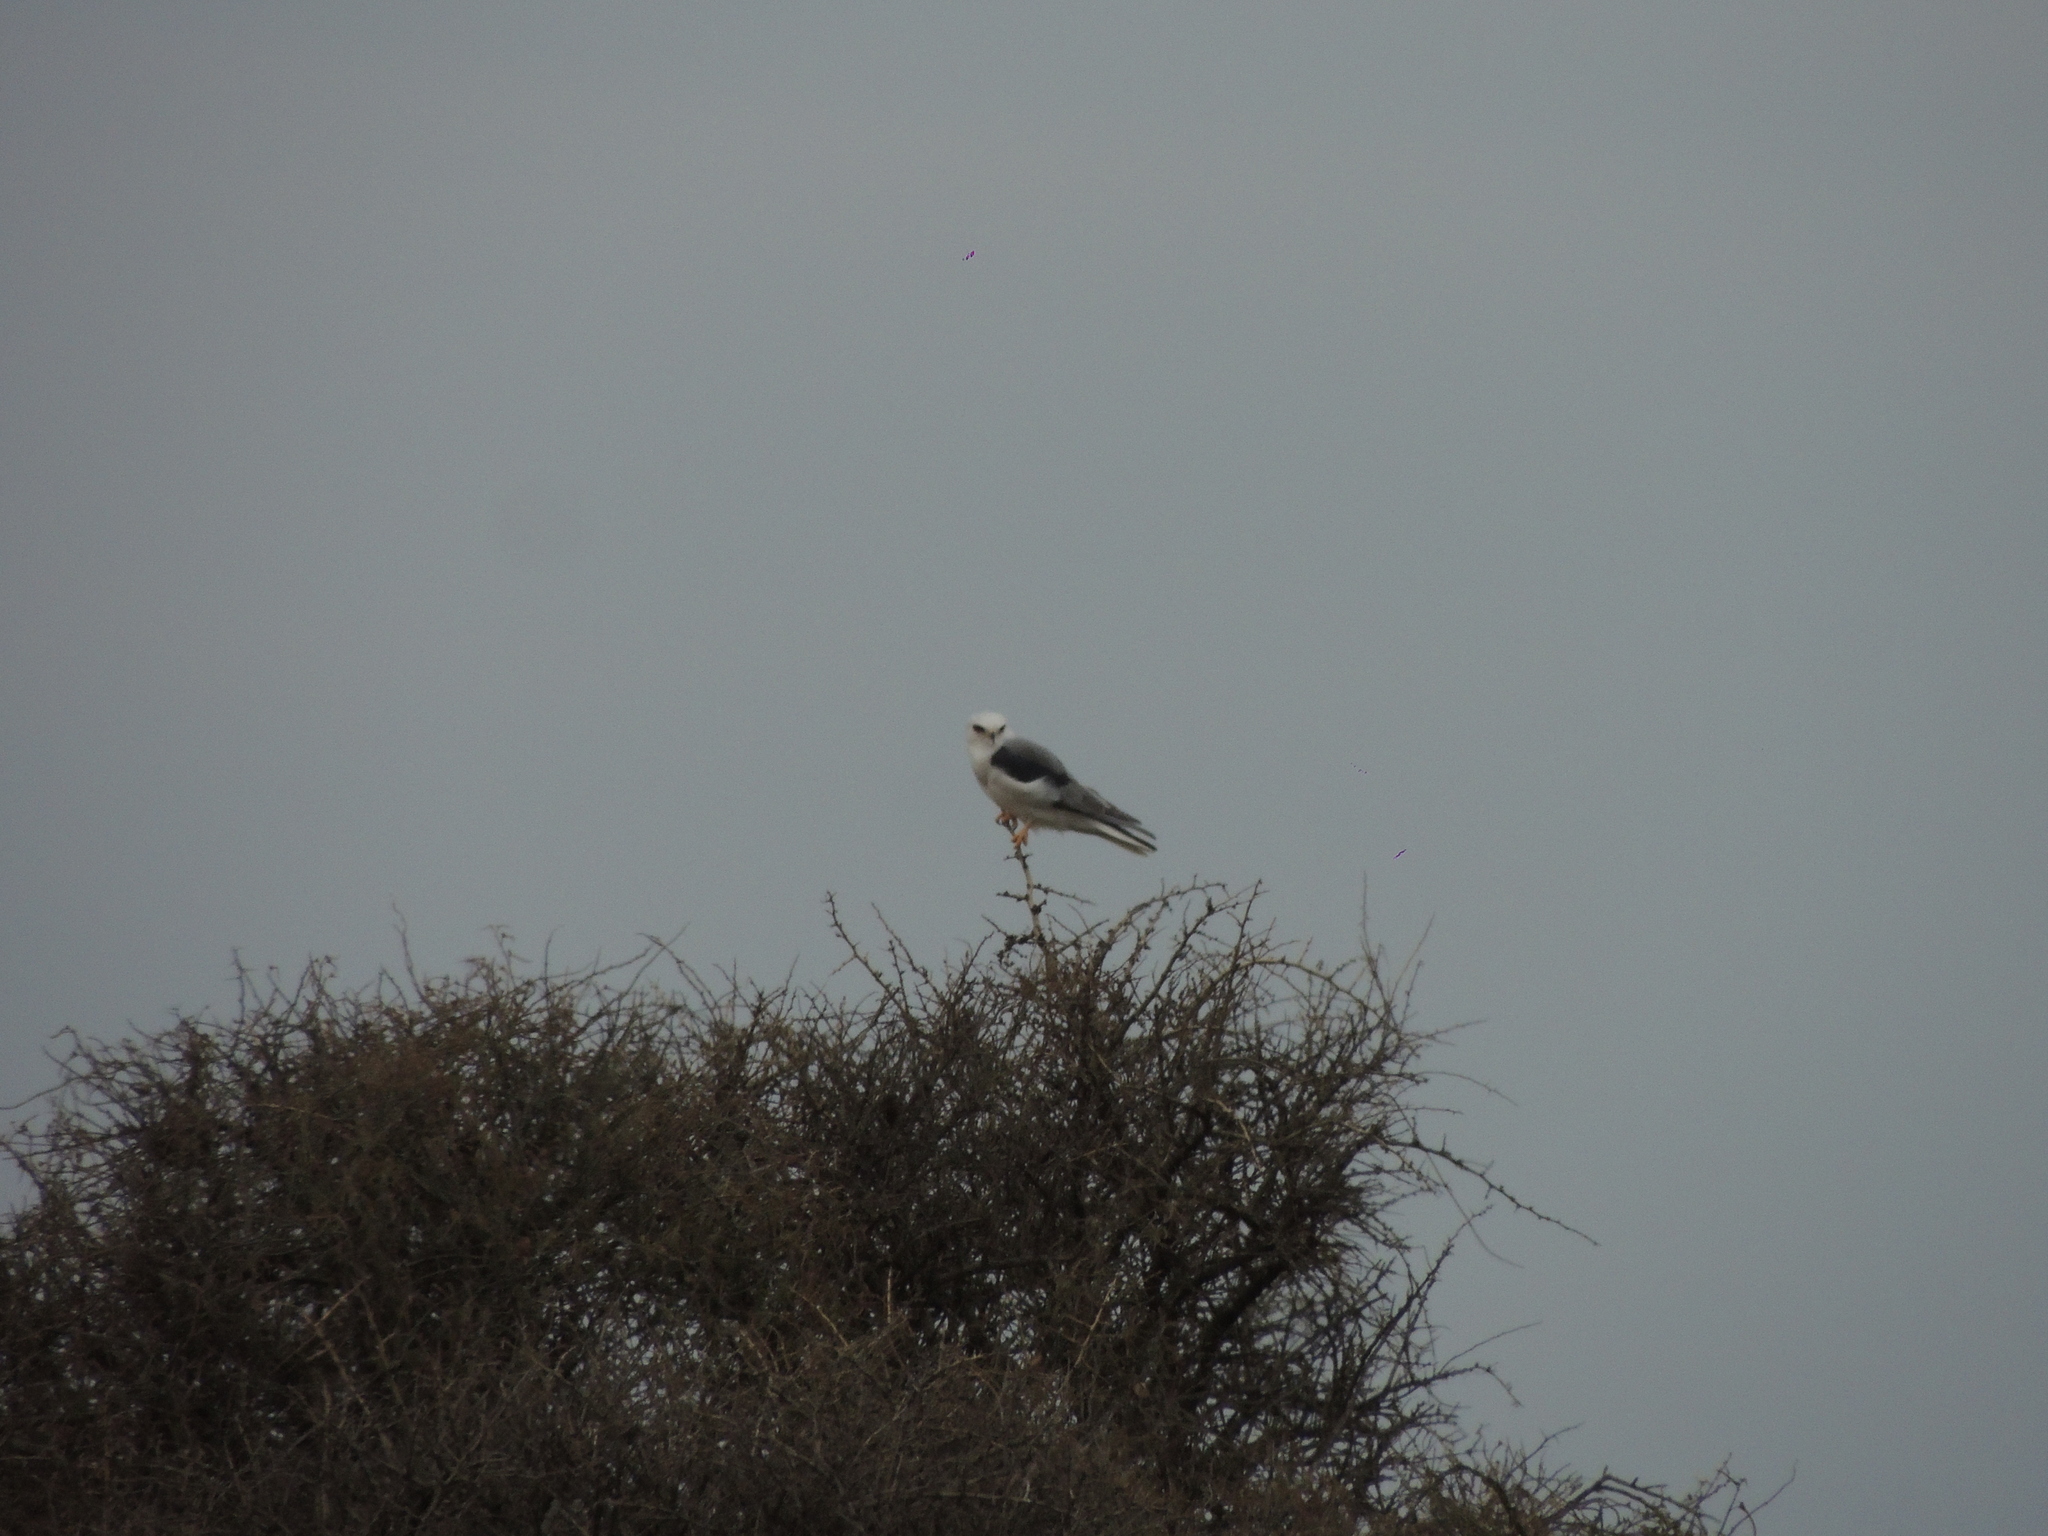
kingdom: Animalia
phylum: Chordata
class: Aves
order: Accipitriformes
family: Accipitridae
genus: Elanus
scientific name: Elanus leucurus
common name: White-tailed kite
